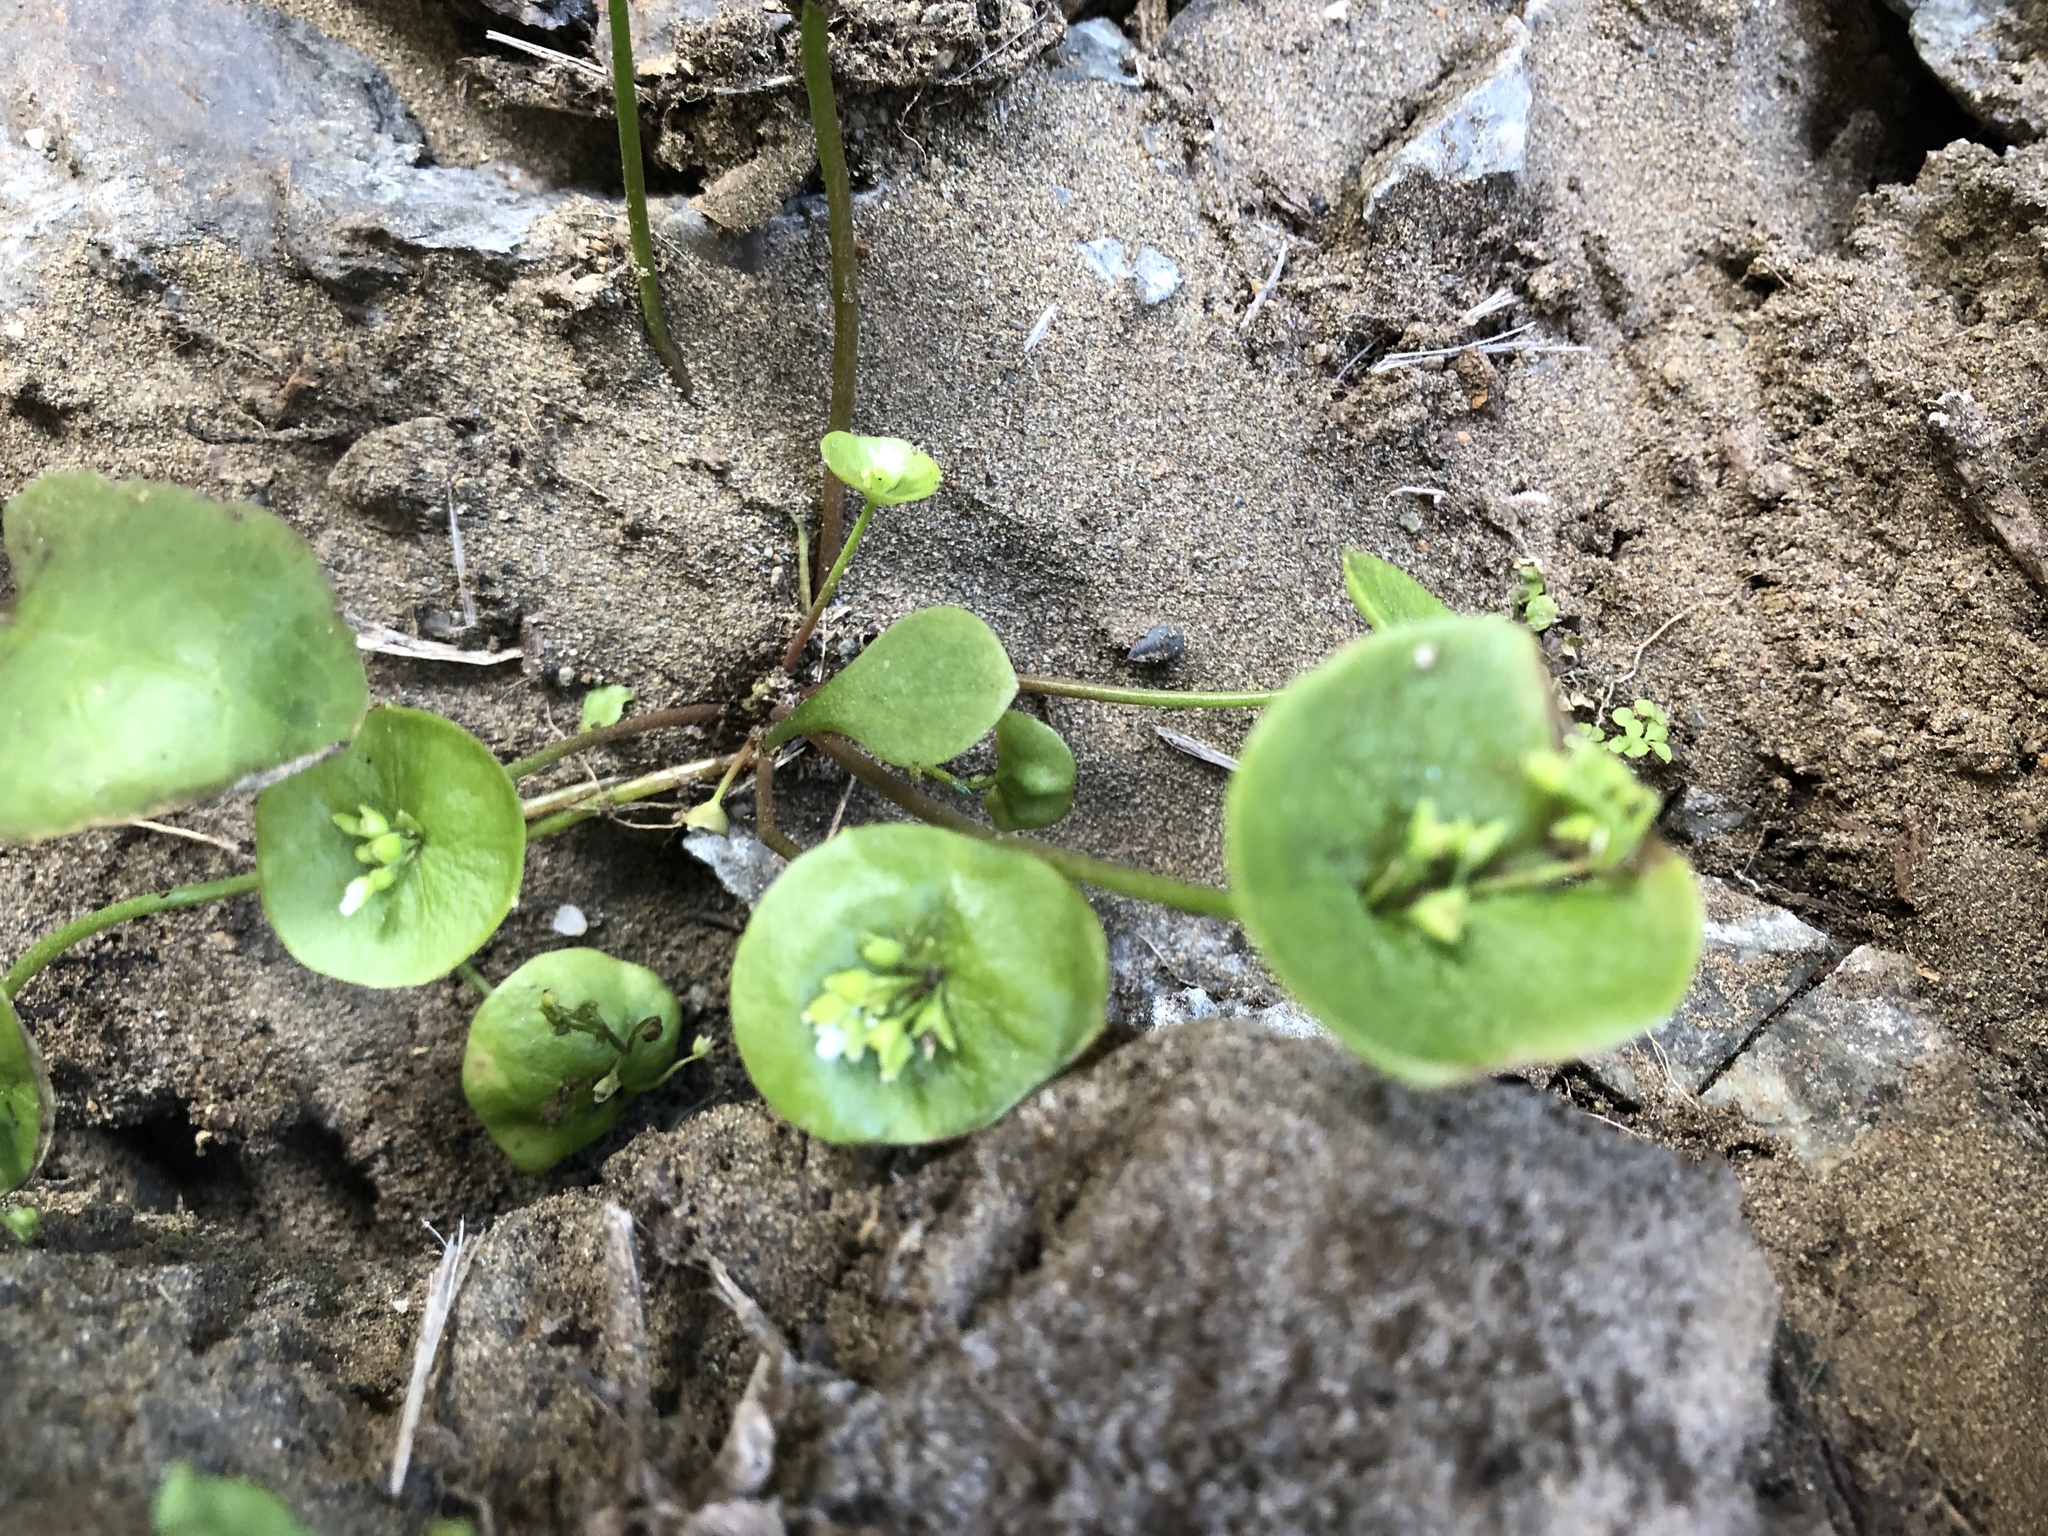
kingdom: Plantae
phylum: Tracheophyta
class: Magnoliopsida
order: Caryophyllales
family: Montiaceae
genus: Claytonia
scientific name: Claytonia perfoliata
